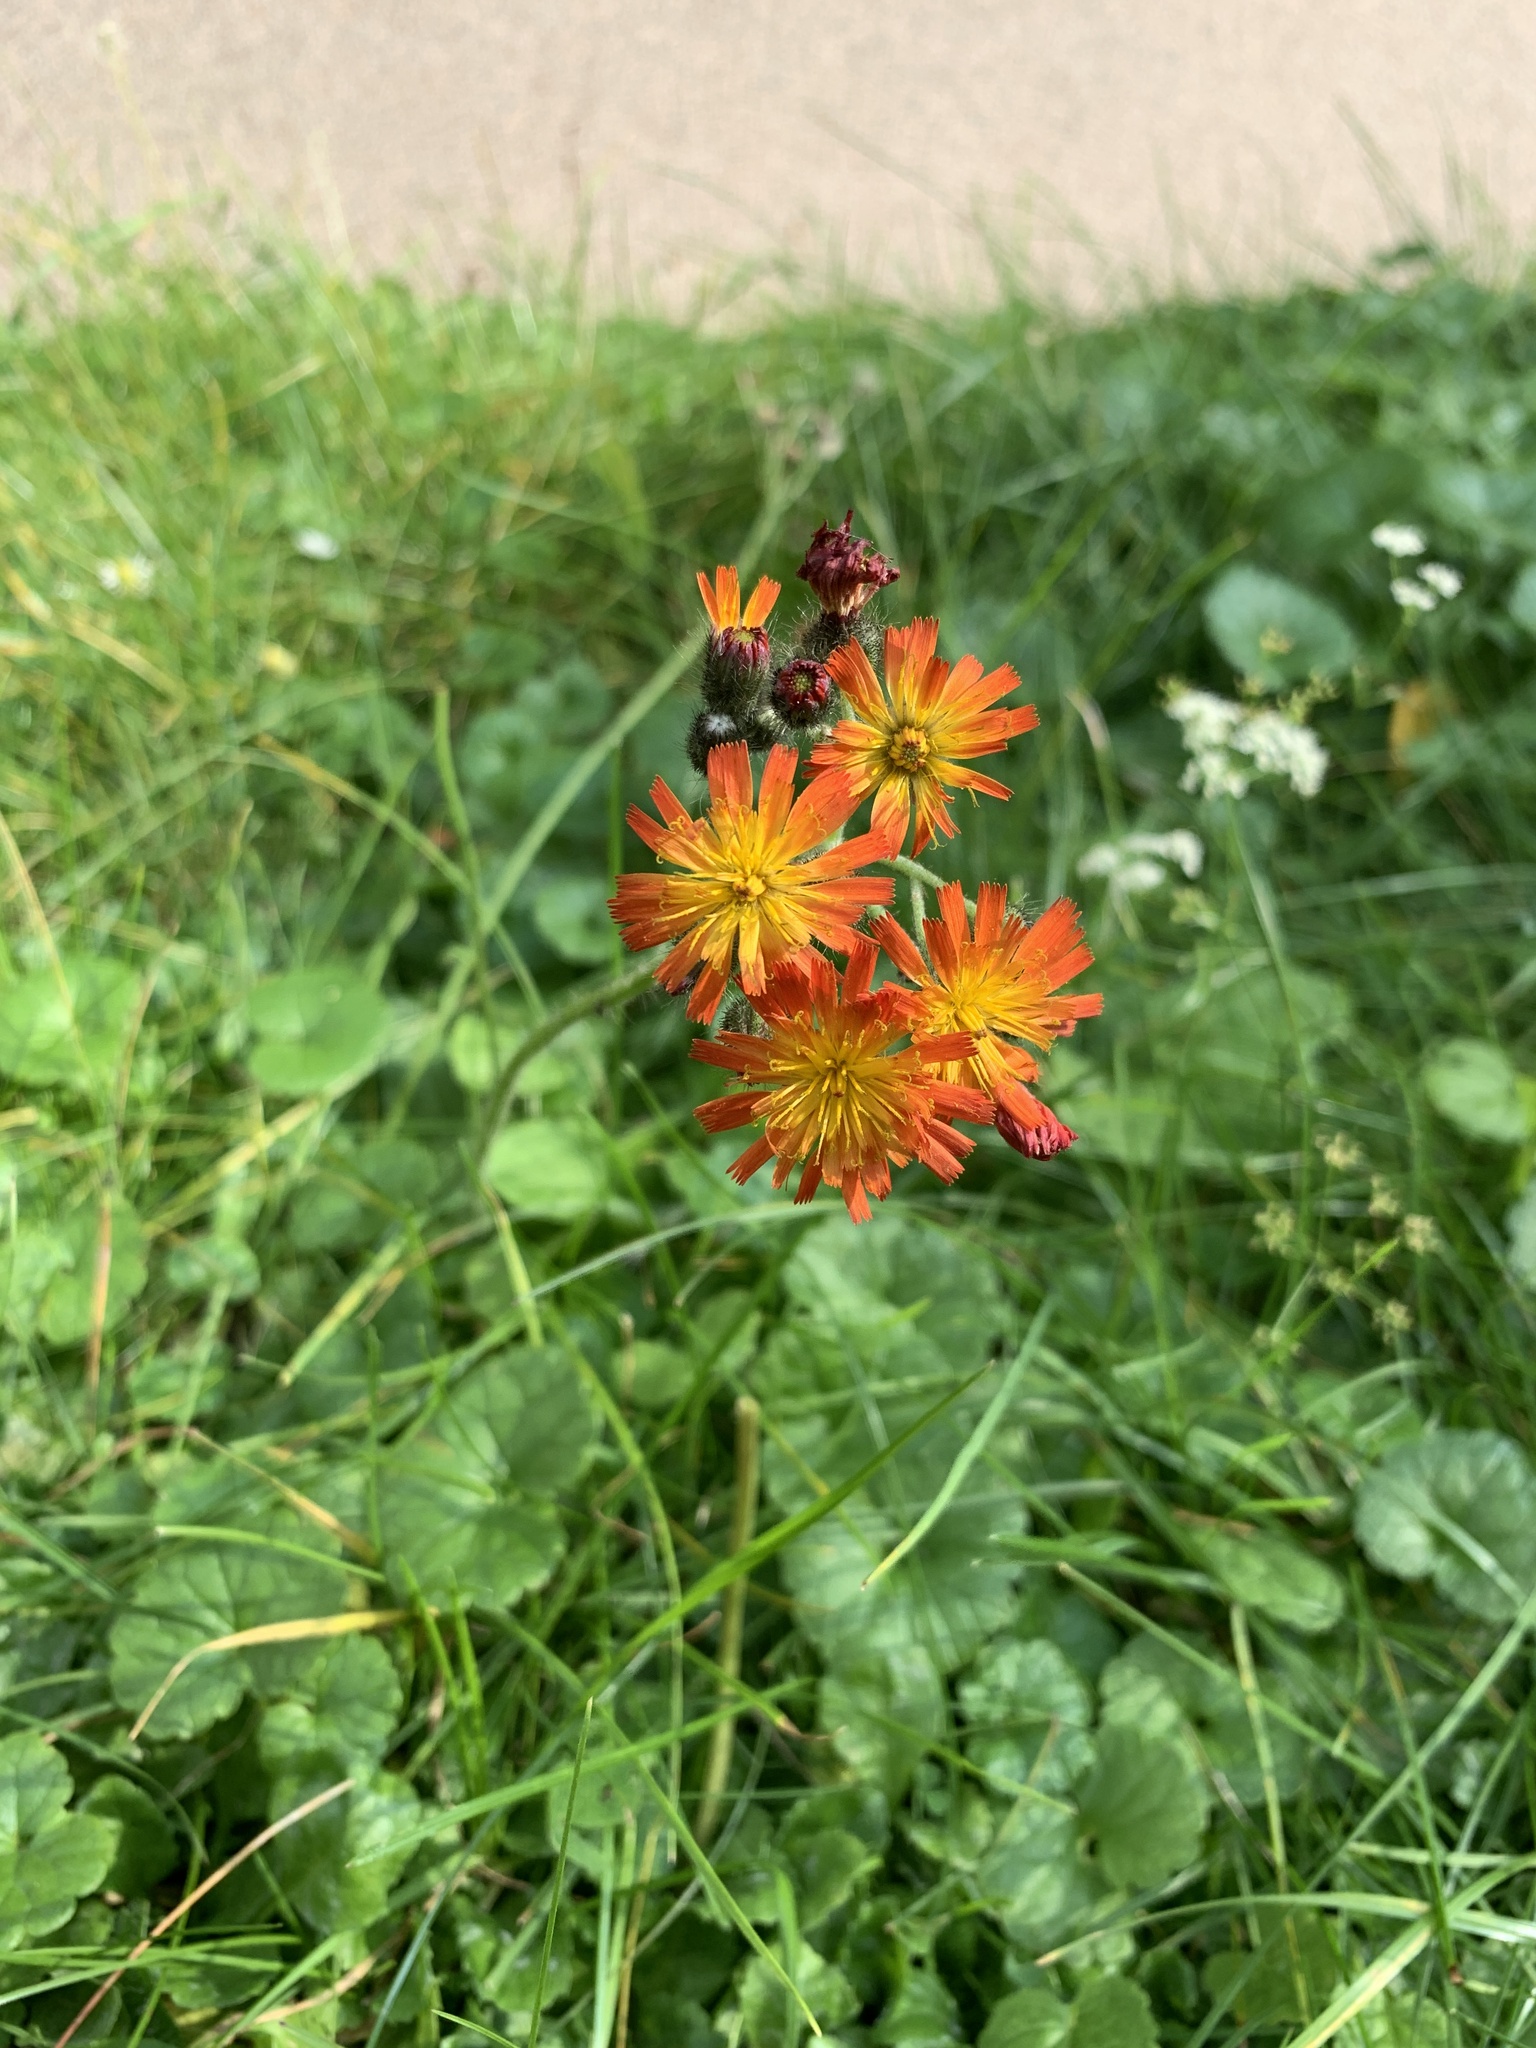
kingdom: Plantae
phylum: Tracheophyta
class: Magnoliopsida
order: Asterales
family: Asteraceae
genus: Pilosella
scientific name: Pilosella aurantiaca
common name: Fox-and-cubs
